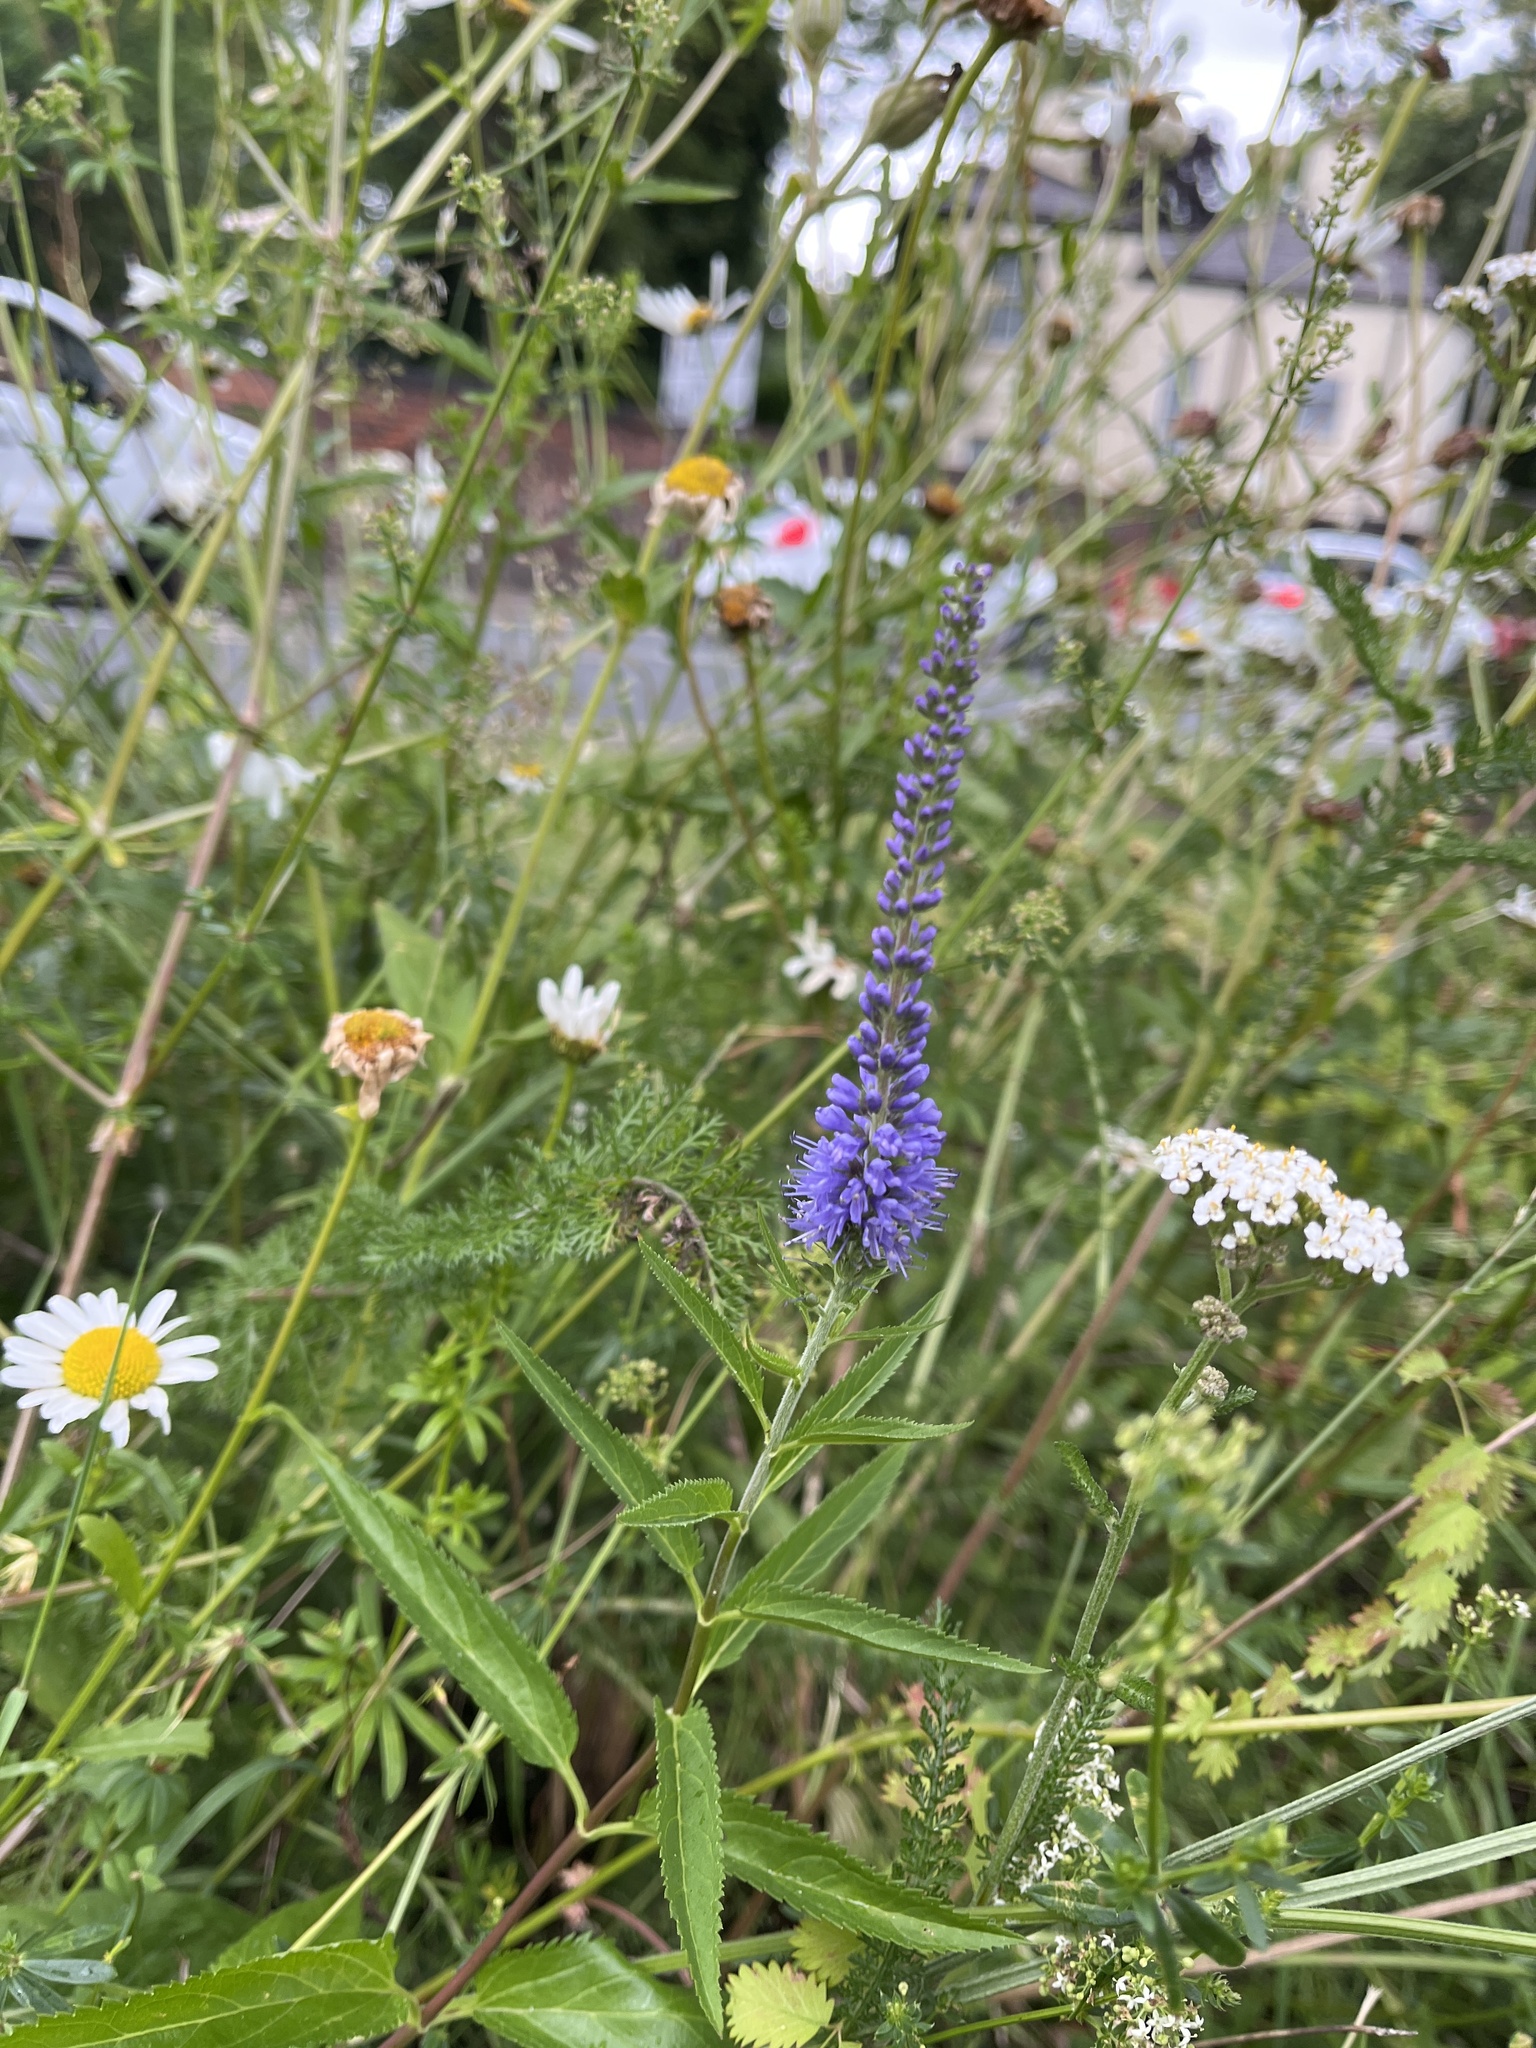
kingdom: Plantae
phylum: Tracheophyta
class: Magnoliopsida
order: Lamiales
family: Plantaginaceae
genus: Veronica
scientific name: Veronica longifolia
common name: Garden speedwell
